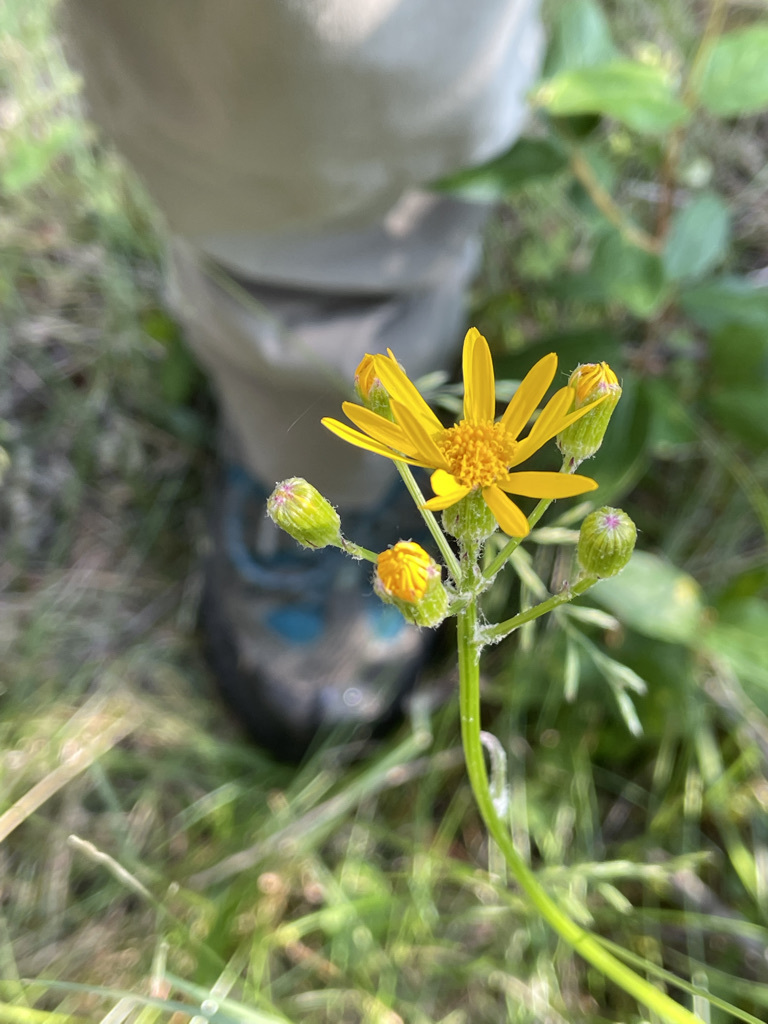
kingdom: Plantae
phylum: Tracheophyta
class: Magnoliopsida
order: Asterales
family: Asteraceae
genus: Packera
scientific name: Packera paupercula
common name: Balsam groundsel
